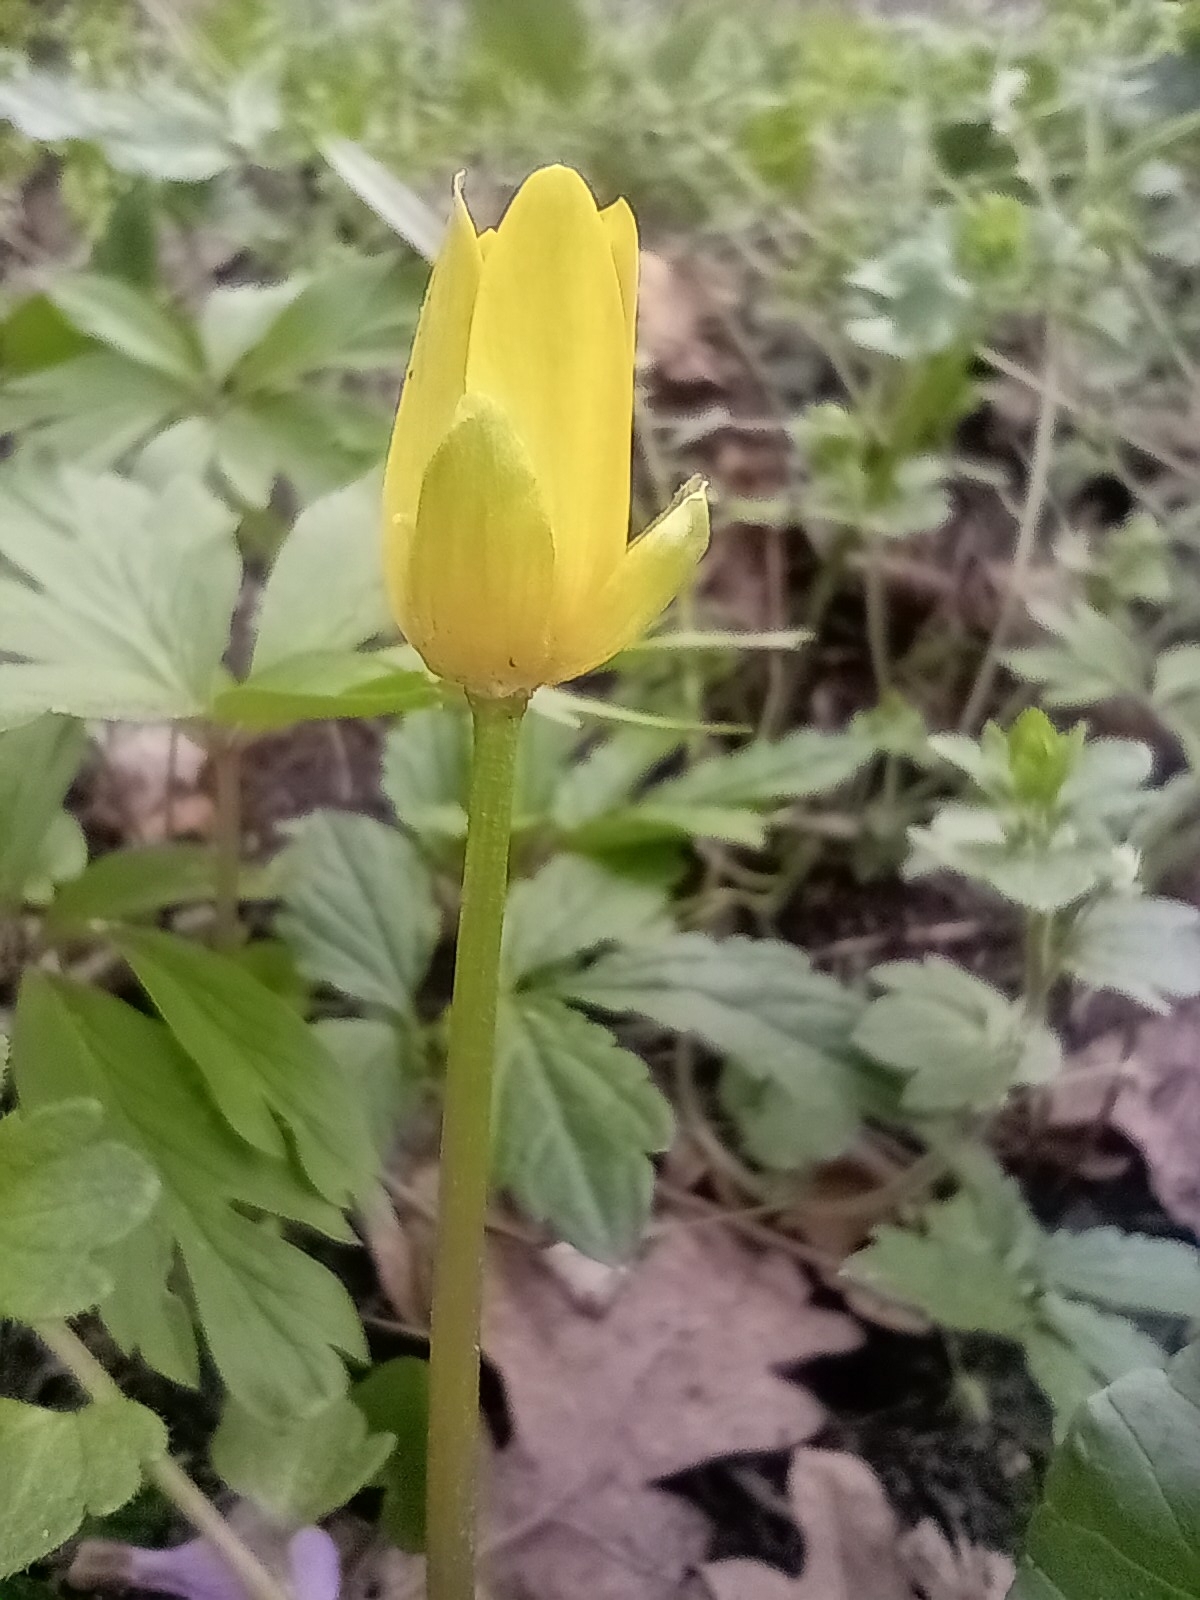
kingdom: Plantae
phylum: Tracheophyta
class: Magnoliopsida
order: Ranunculales
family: Ranunculaceae
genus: Ficaria
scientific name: Ficaria verna
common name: Lesser celandine
